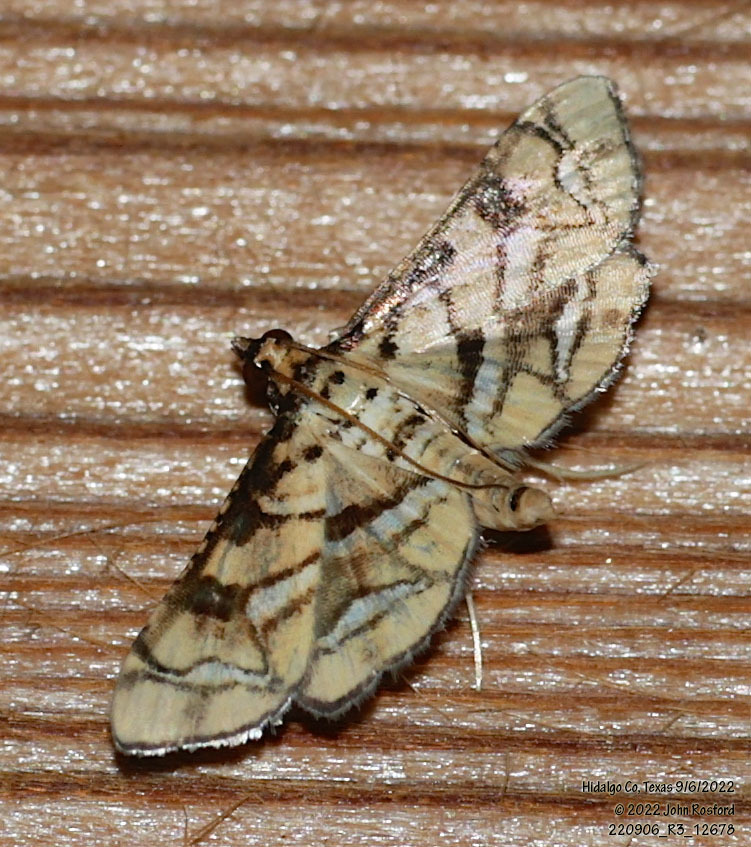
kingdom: Animalia
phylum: Arthropoda
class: Insecta
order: Lepidoptera
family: Crambidae
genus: Hileithia
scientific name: Hileithia magualis
